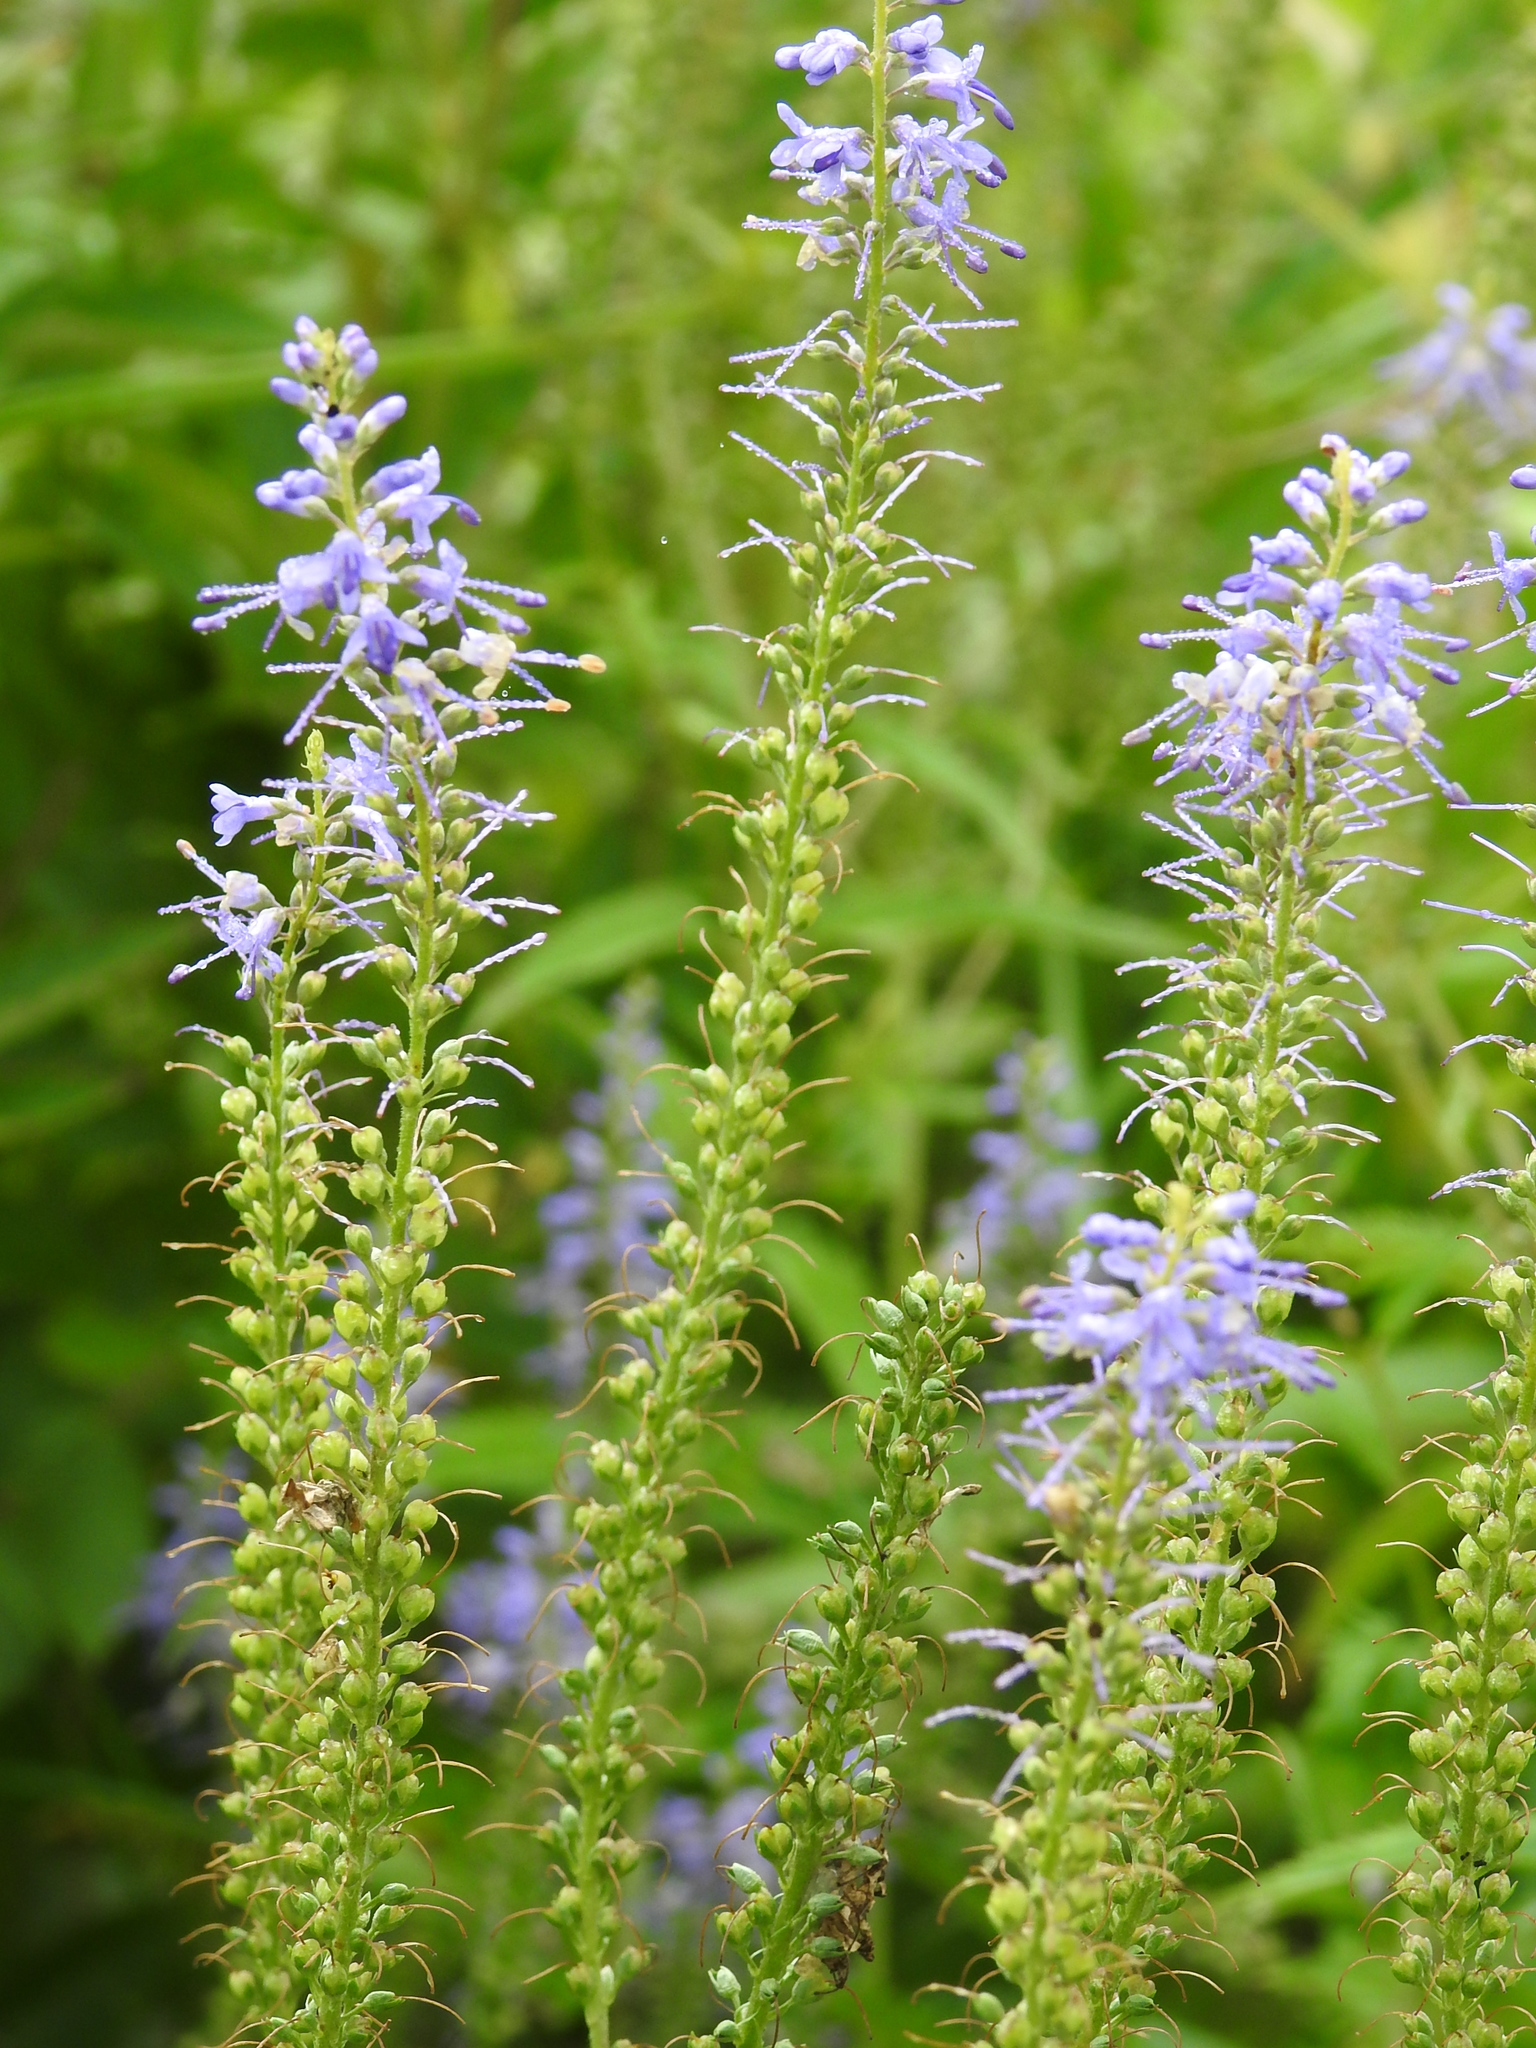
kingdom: Plantae
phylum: Tracheophyta
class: Magnoliopsida
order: Lamiales
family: Plantaginaceae
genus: Veronica
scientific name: Veronica longifolia
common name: Garden speedwell
